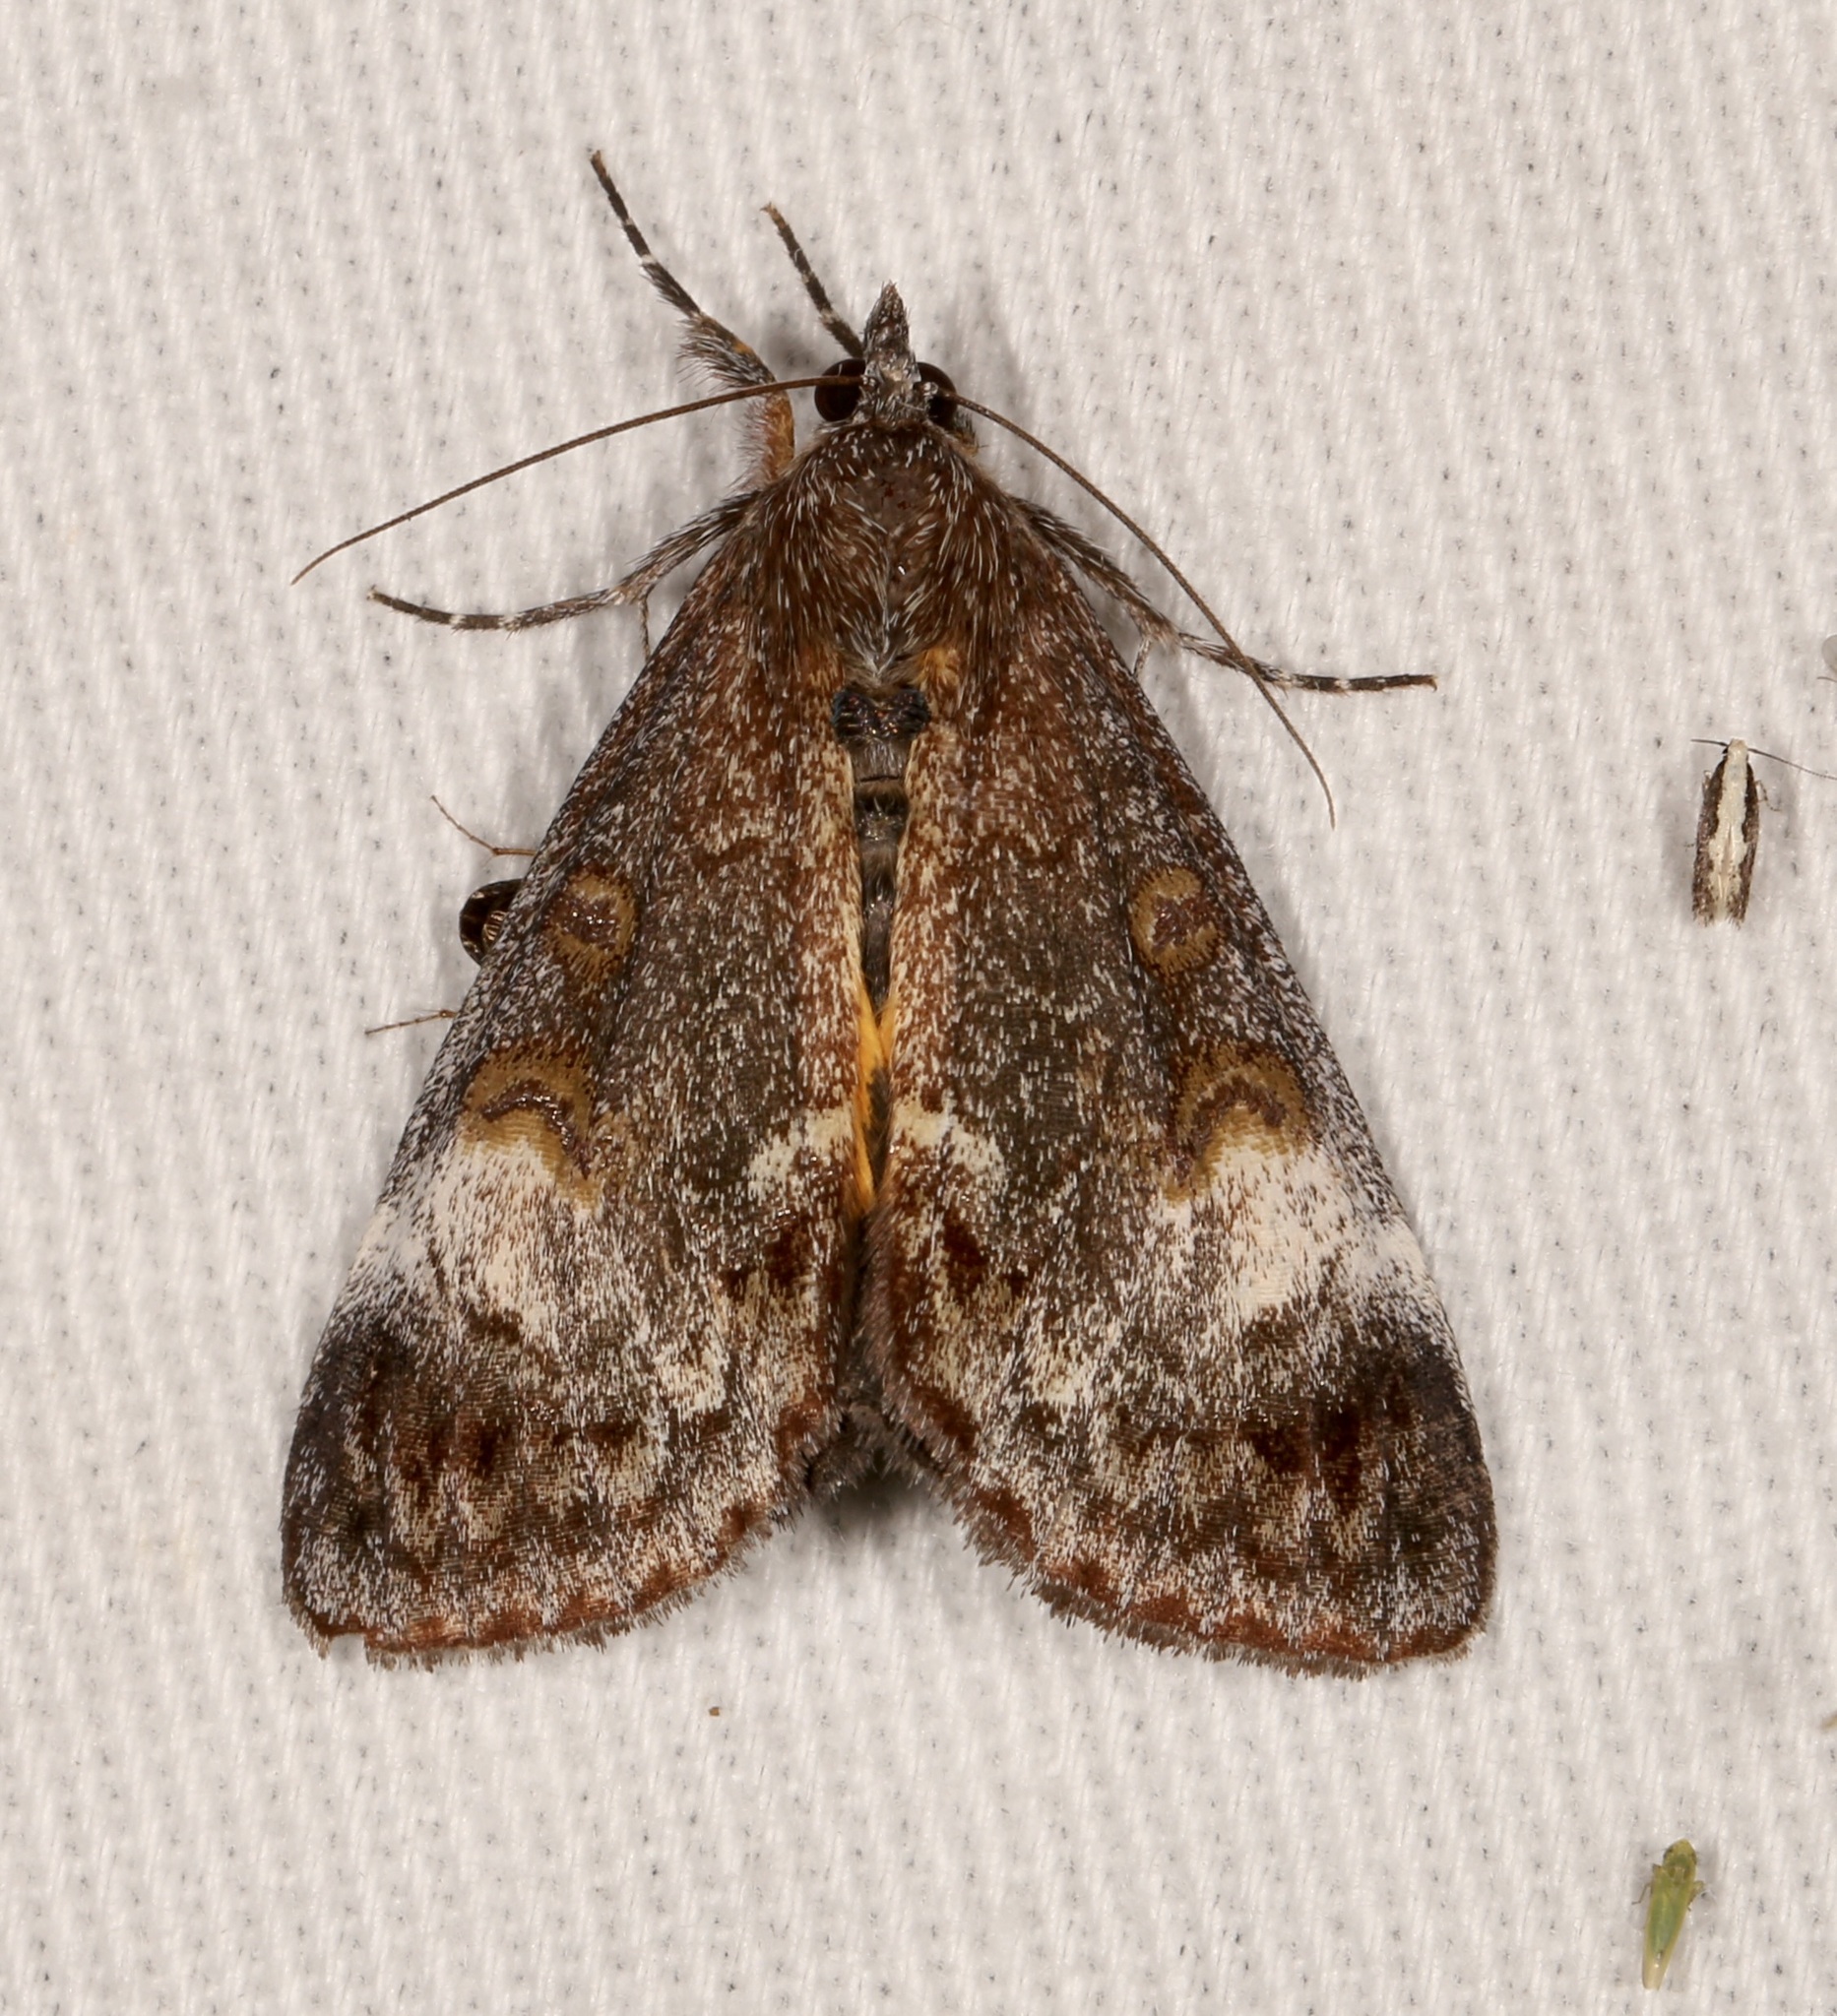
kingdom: Animalia
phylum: Arthropoda
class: Insecta
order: Lepidoptera
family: Noctuidae
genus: Gerra
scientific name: Gerra sevorsa
